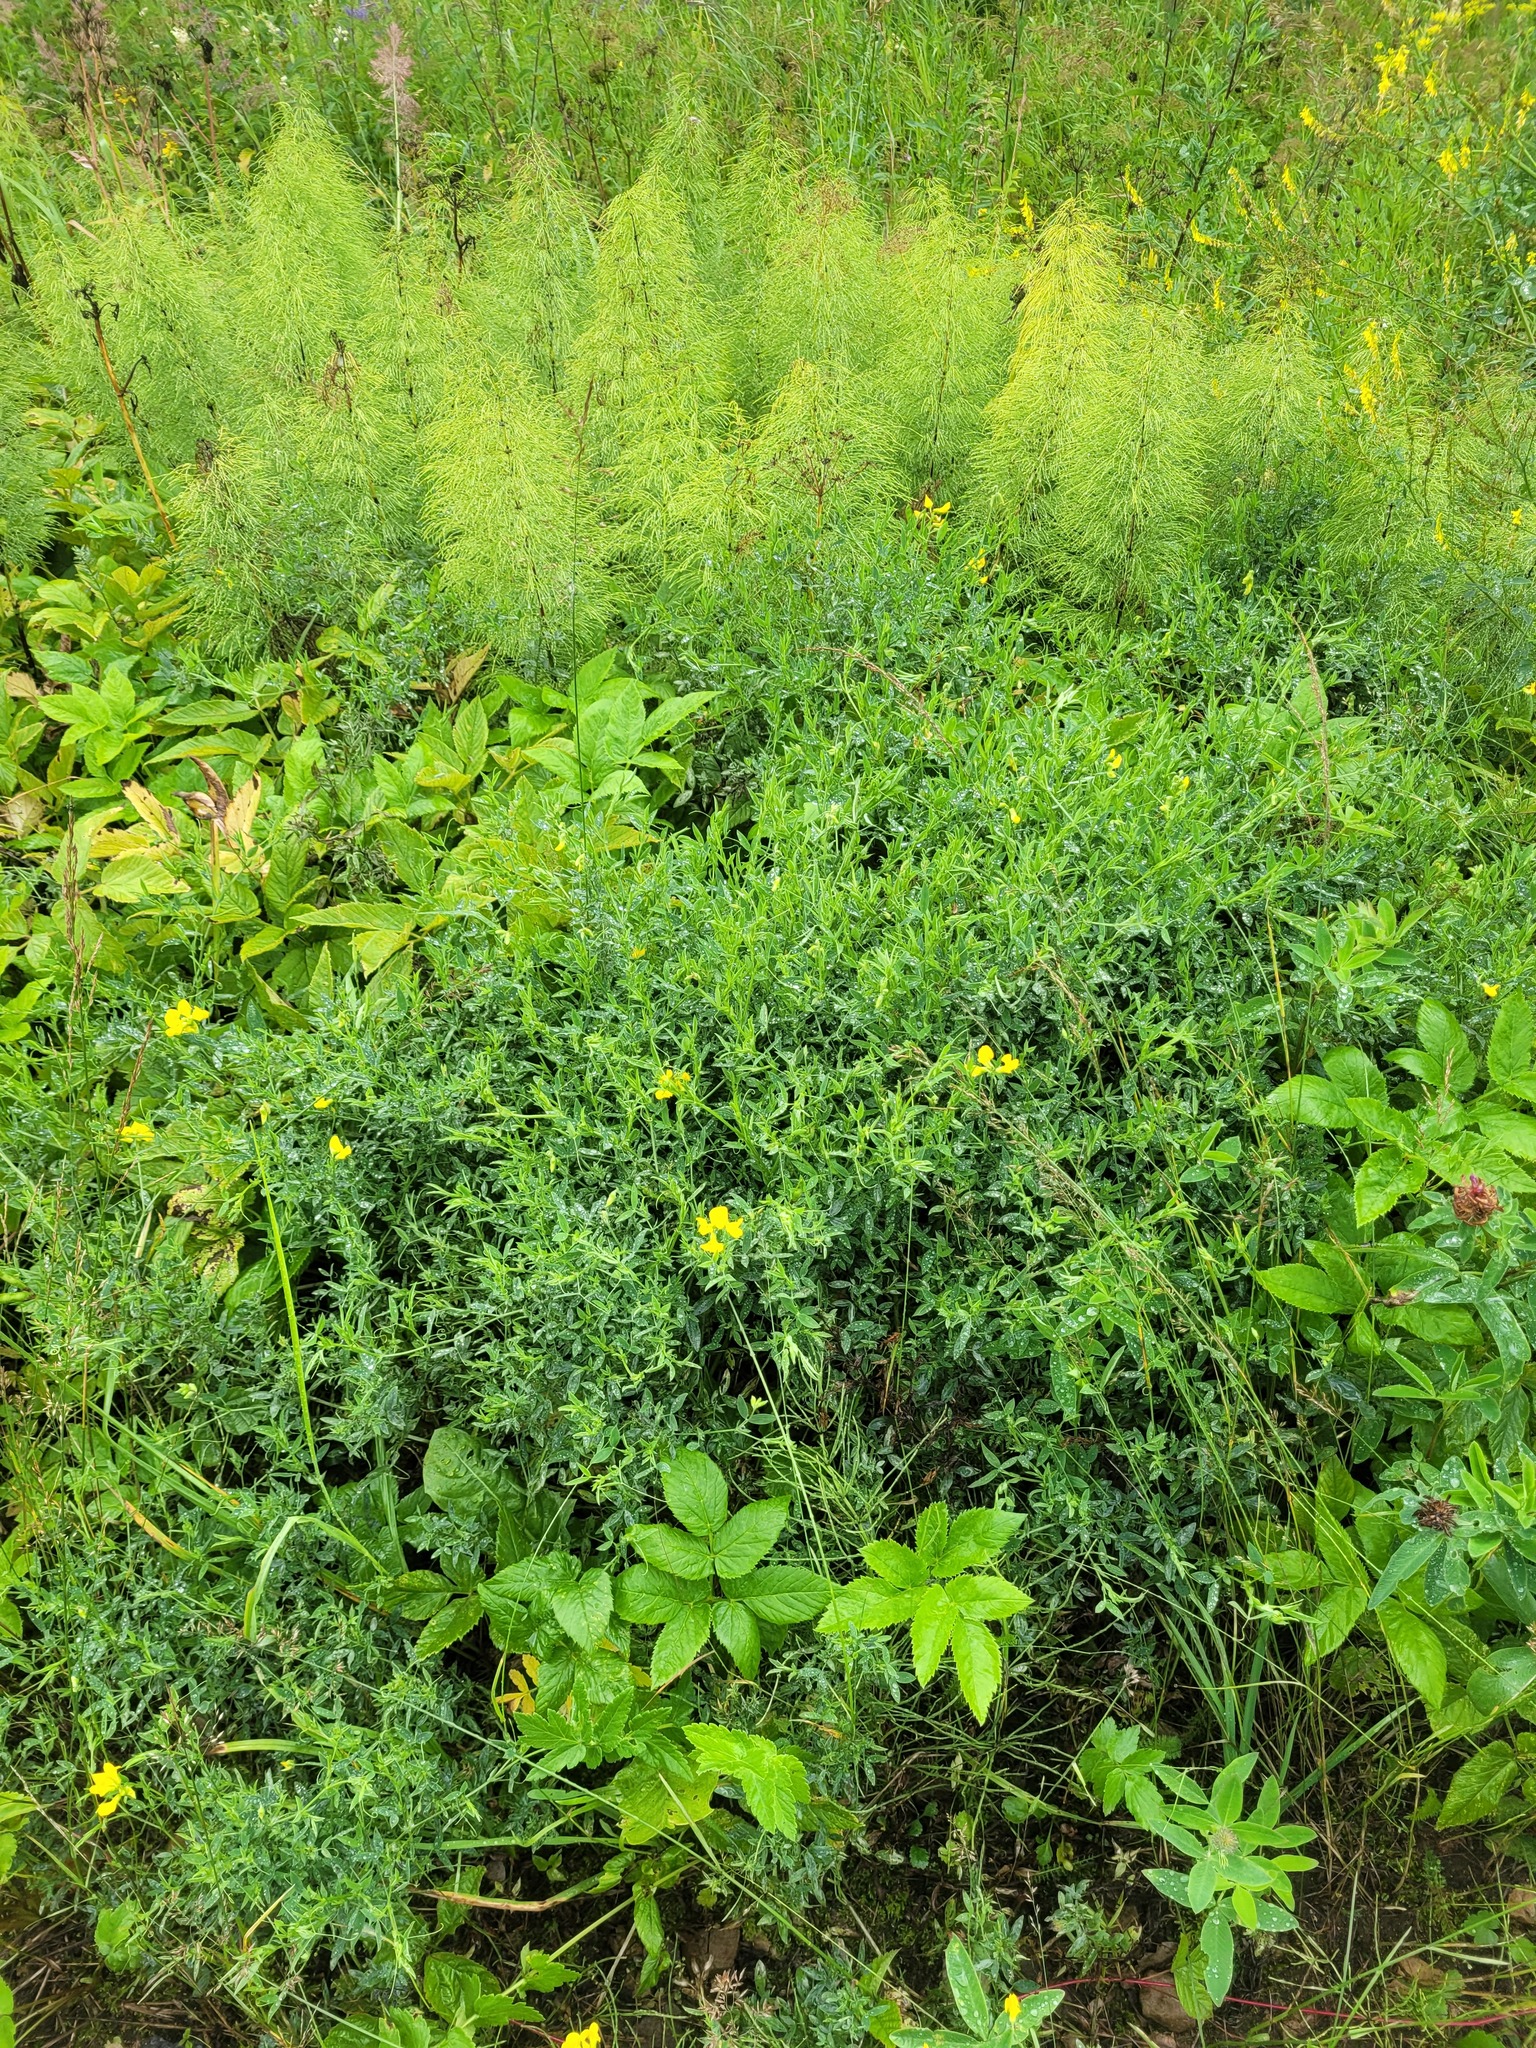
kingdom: Plantae
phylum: Tracheophyta
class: Magnoliopsida
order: Fabales
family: Fabaceae
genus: Lathyrus
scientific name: Lathyrus pratensis
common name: Meadow vetchling
